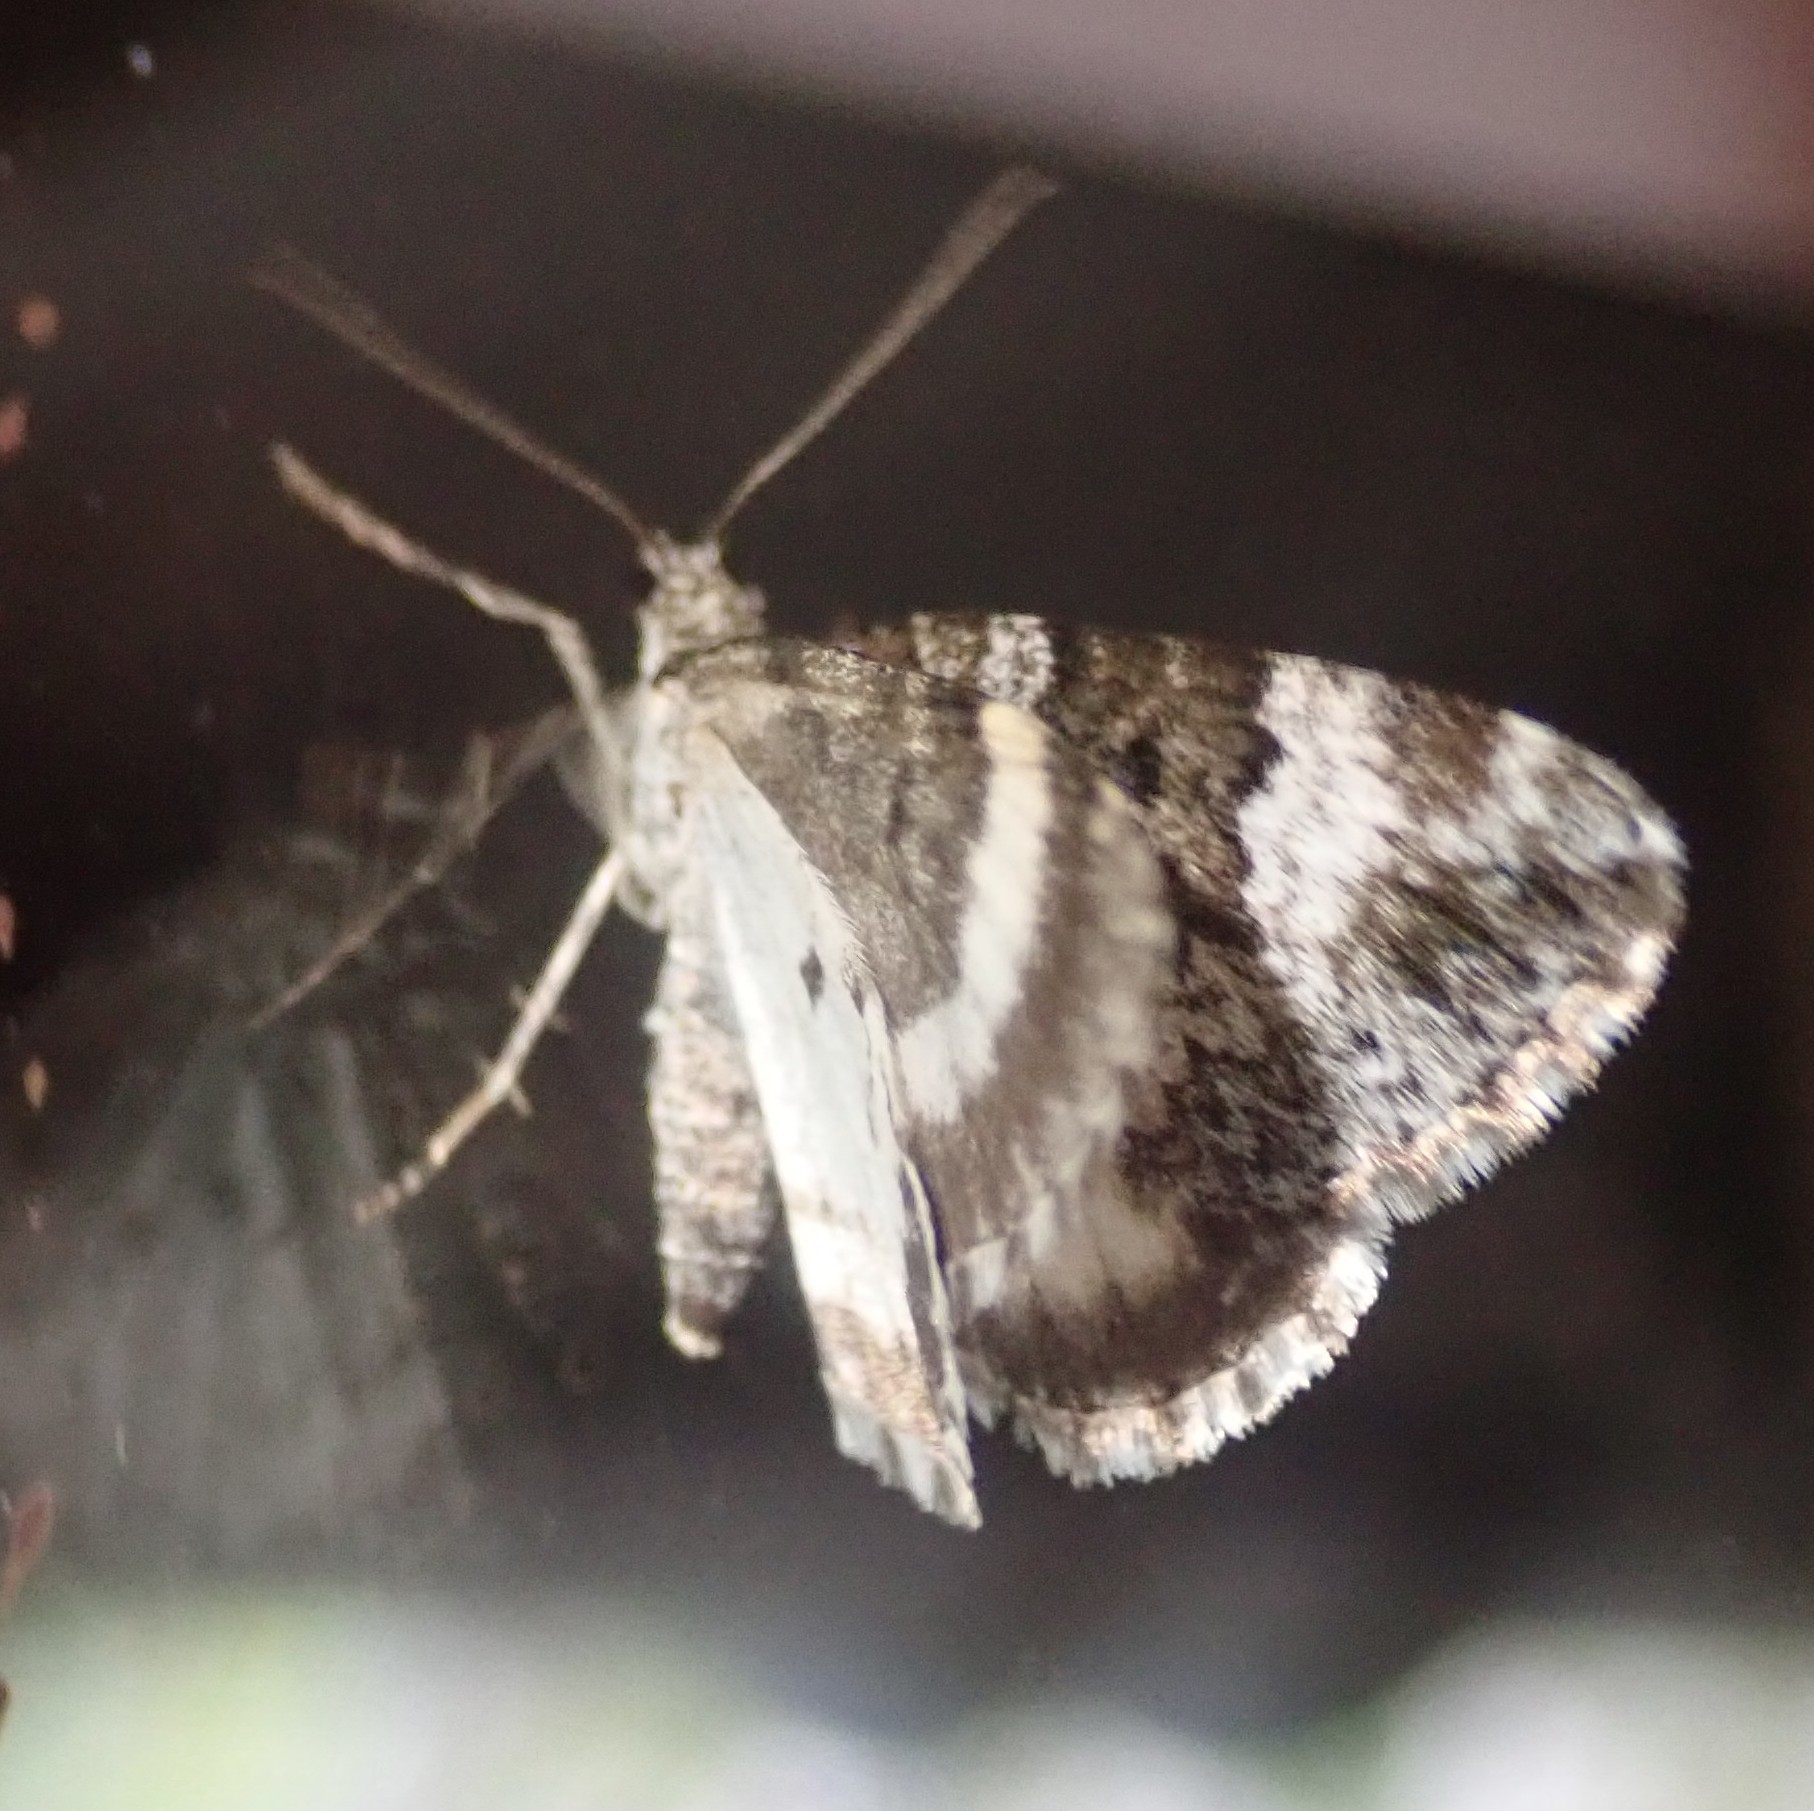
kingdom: Animalia
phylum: Arthropoda
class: Insecta
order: Lepidoptera
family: Geometridae
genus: Colostygia
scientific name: Colostygia turbata
